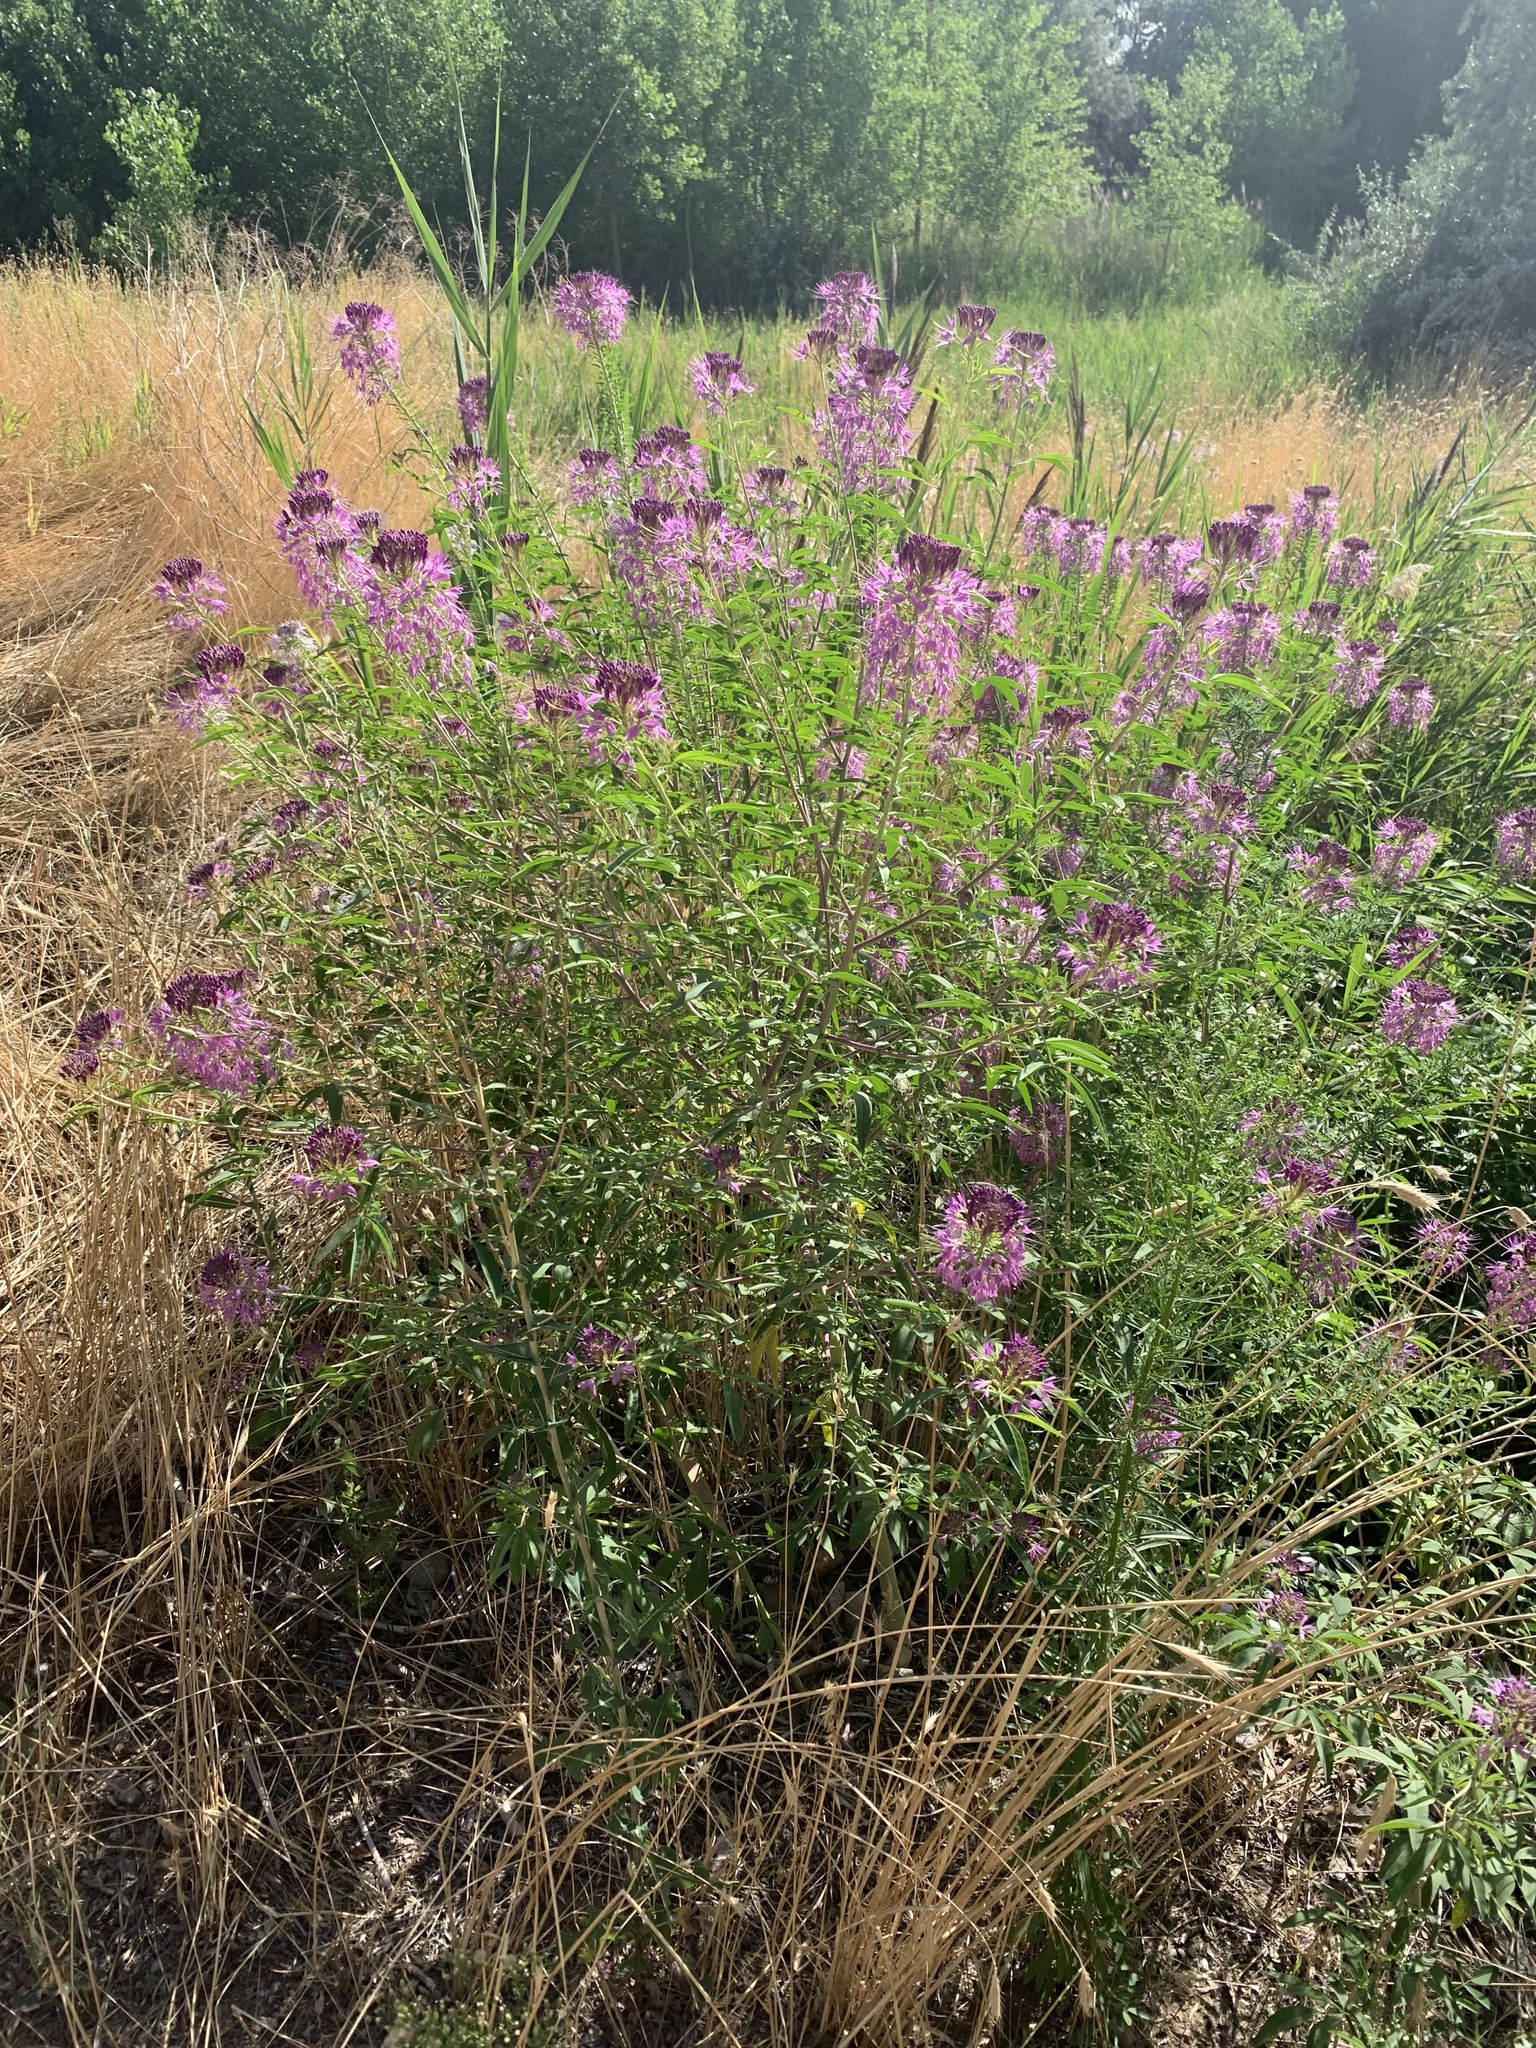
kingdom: Plantae
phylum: Tracheophyta
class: Magnoliopsida
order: Brassicales
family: Cleomaceae
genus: Cleomella
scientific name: Cleomella serrulata
